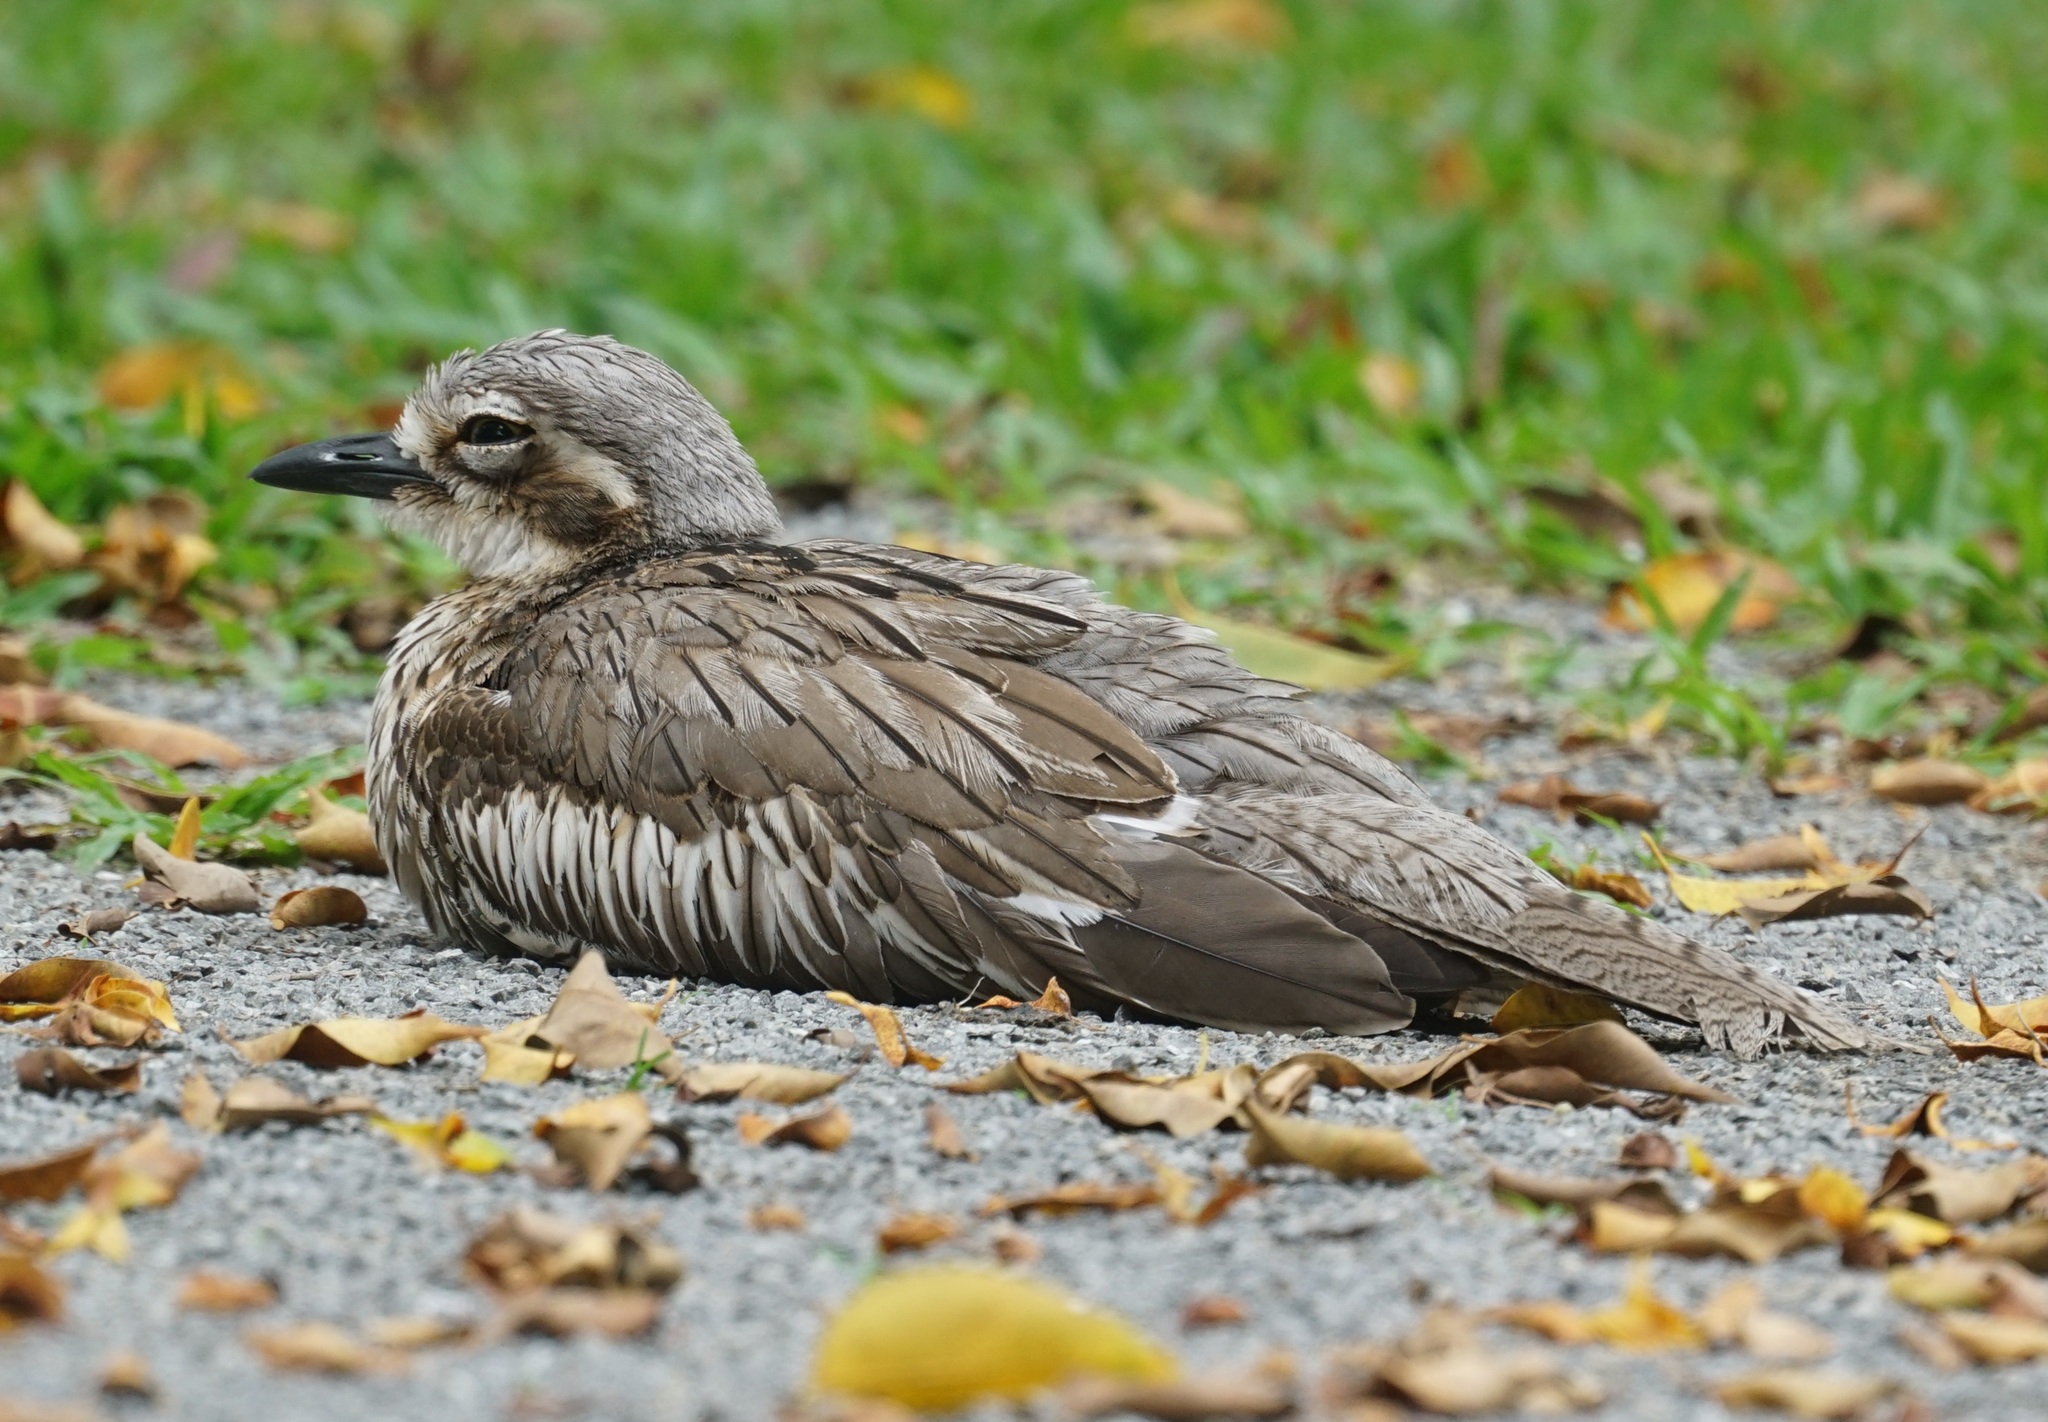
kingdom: Animalia
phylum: Chordata
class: Aves
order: Charadriiformes
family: Burhinidae
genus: Burhinus
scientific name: Burhinus grallarius
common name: Bush stone-curlew
